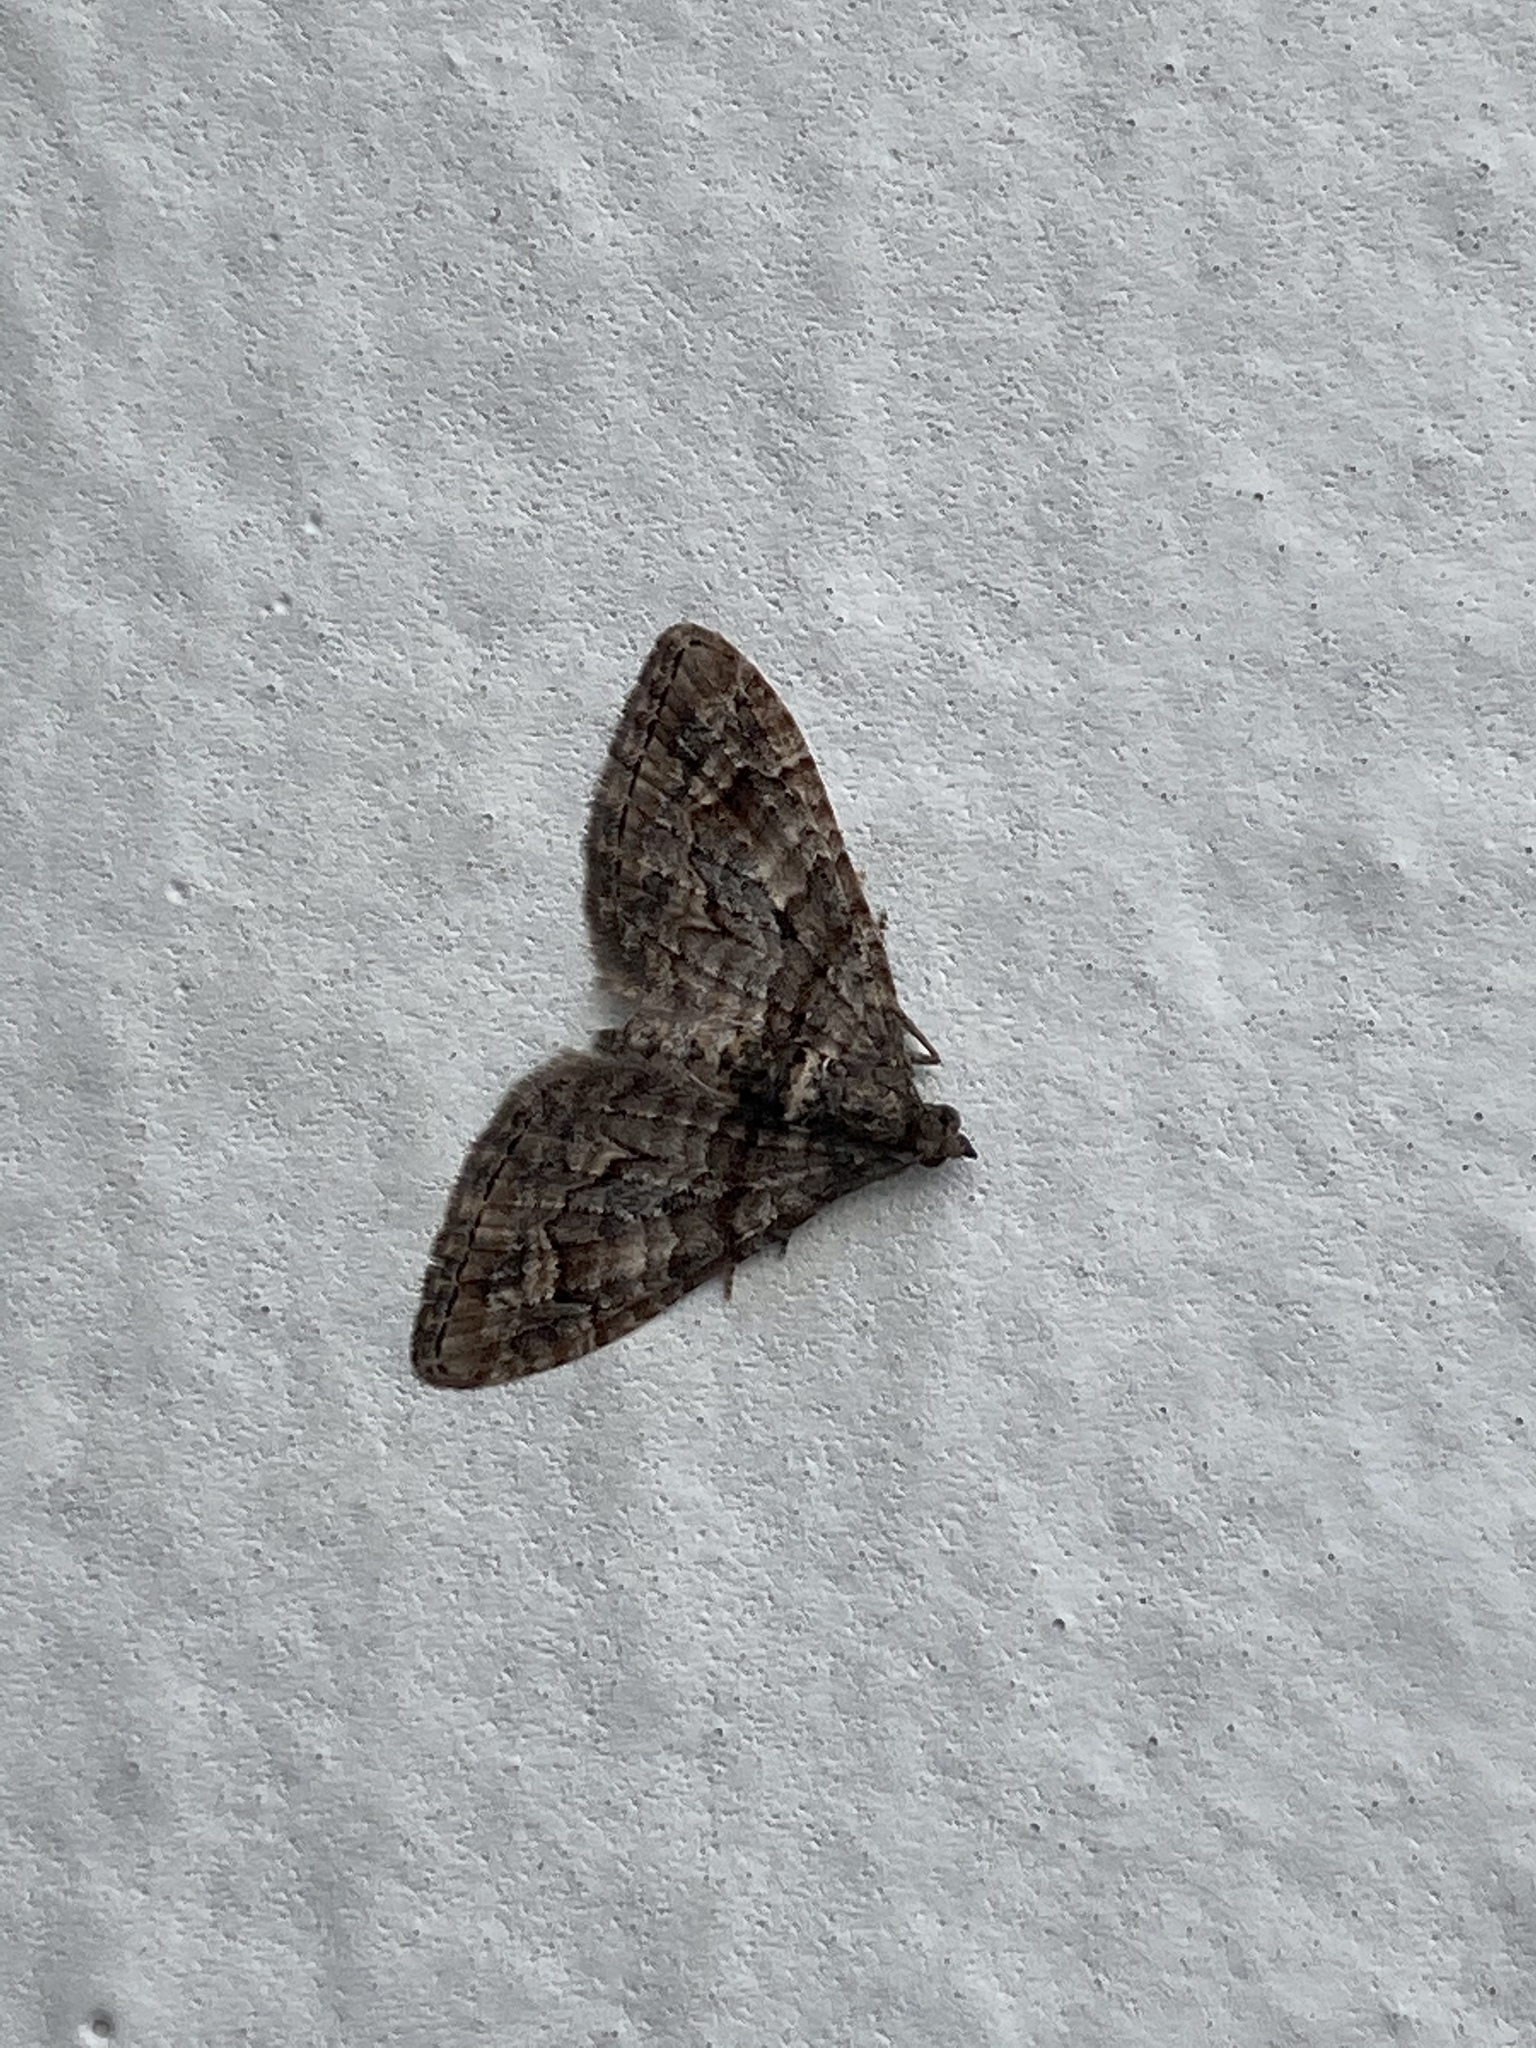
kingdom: Animalia
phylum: Arthropoda
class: Insecta
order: Lepidoptera
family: Geometridae
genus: Phrissogonus
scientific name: Phrissogonus laticostata
